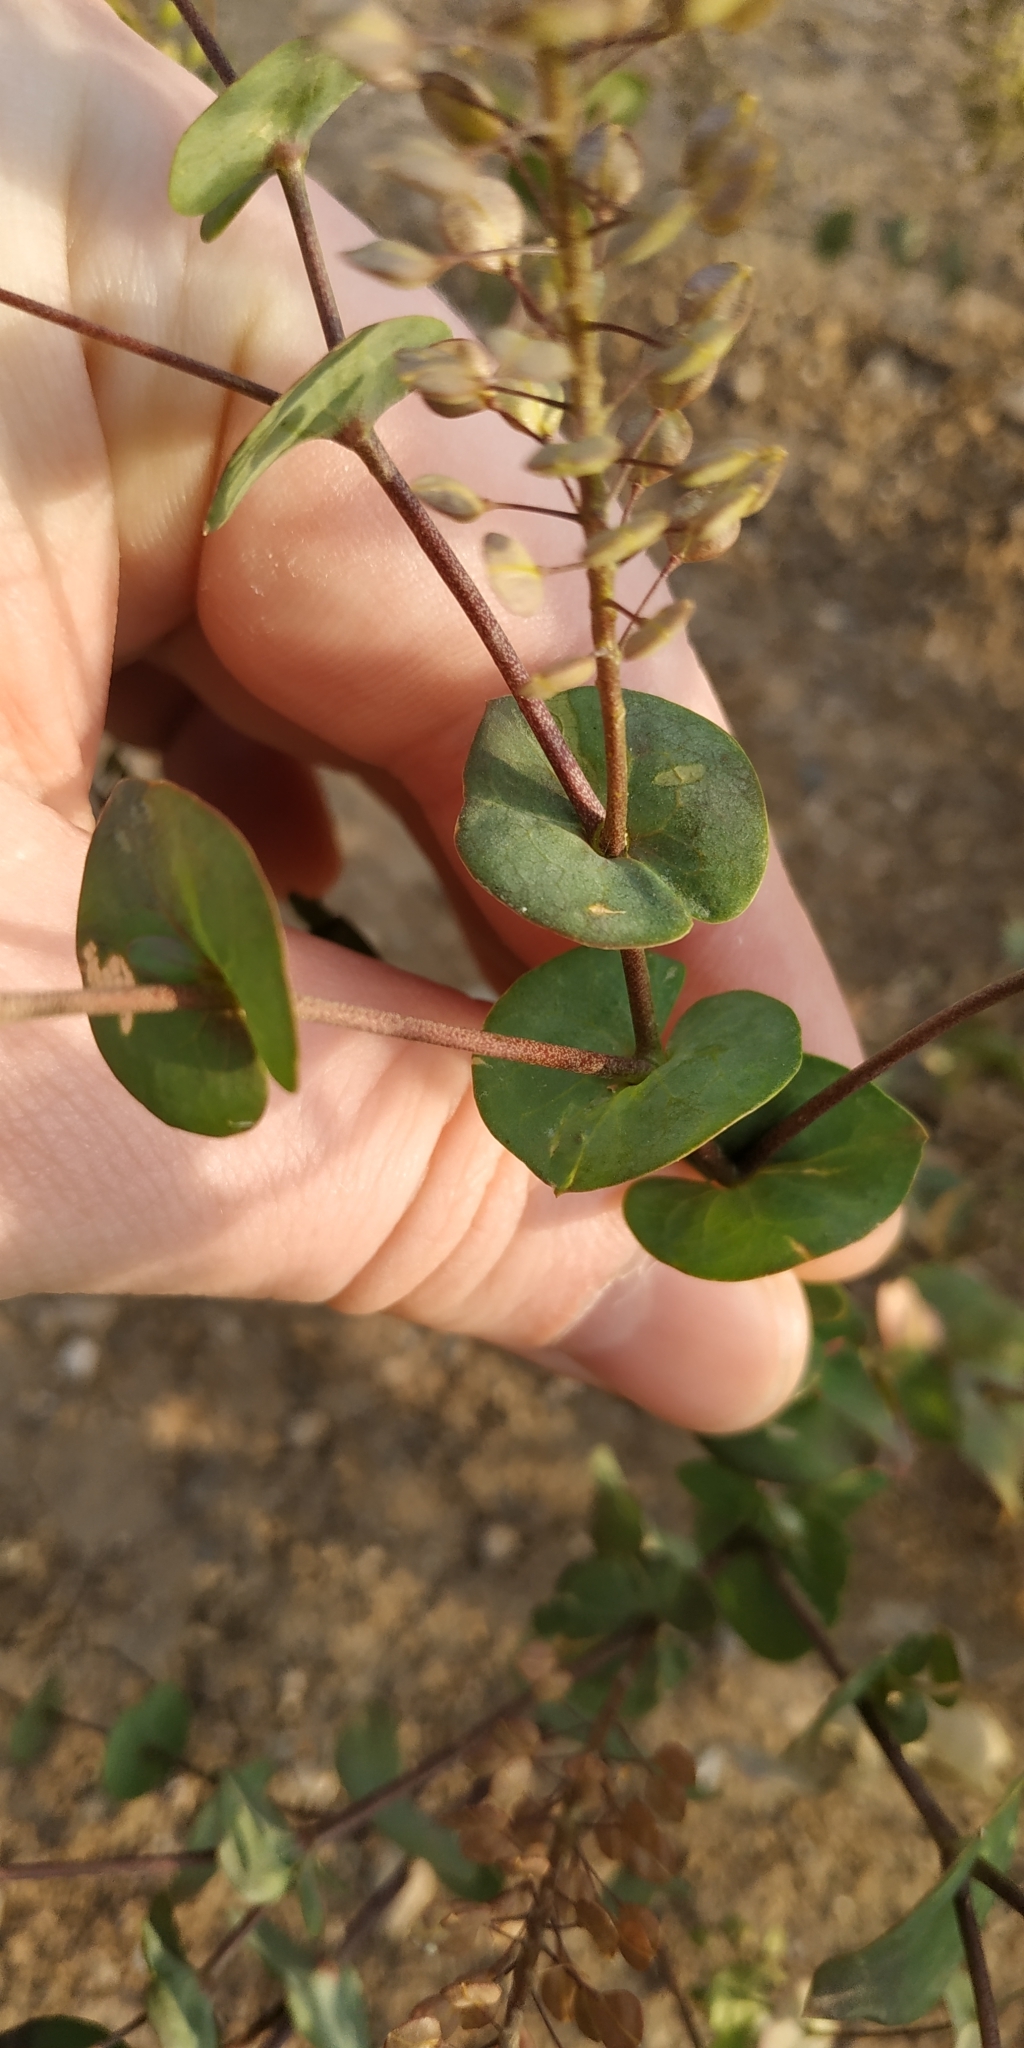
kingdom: Plantae
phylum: Tracheophyta
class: Magnoliopsida
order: Brassicales
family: Brassicaceae
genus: Lepidium
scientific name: Lepidium perfoliatum
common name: Perfoliate pepperwort
